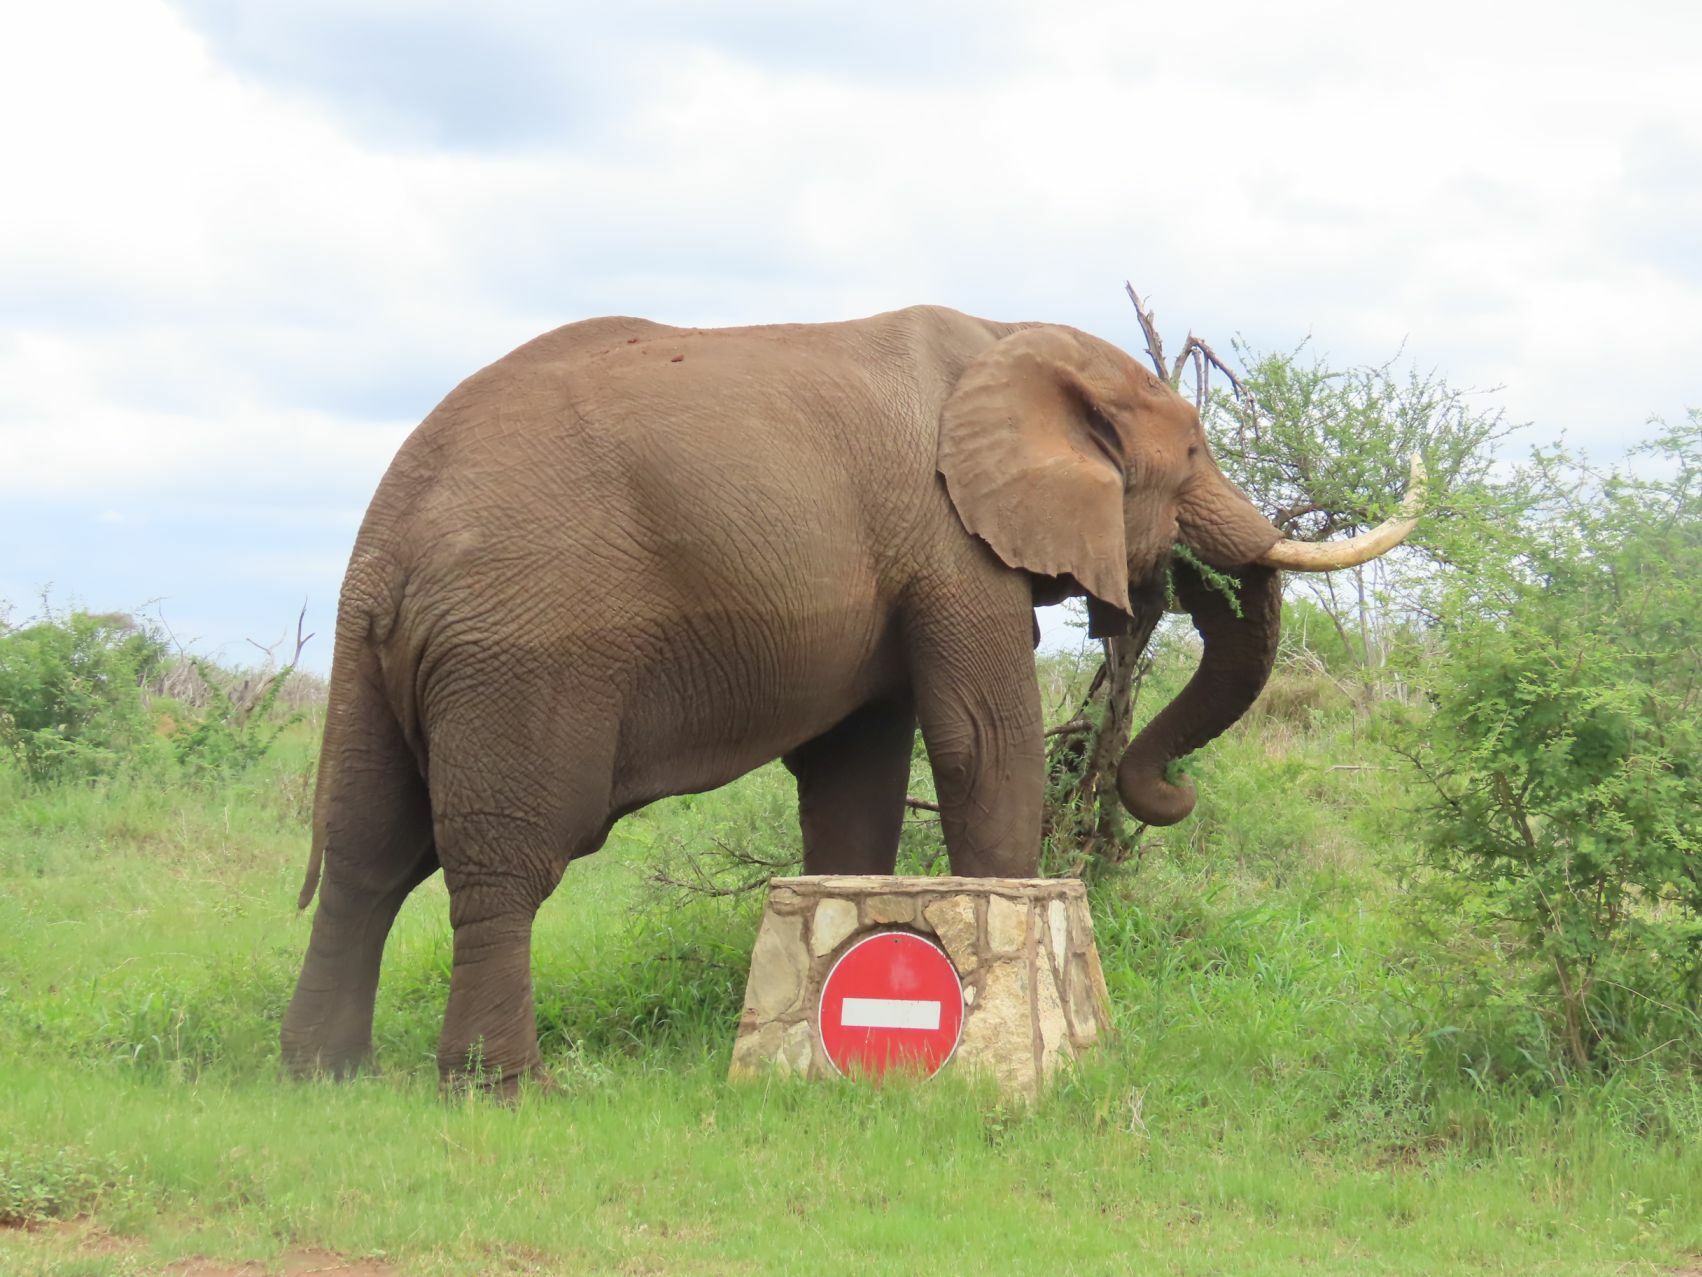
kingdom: Animalia
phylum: Chordata
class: Mammalia
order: Proboscidea
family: Elephantidae
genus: Loxodonta
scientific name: Loxodonta africana
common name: African elephant
